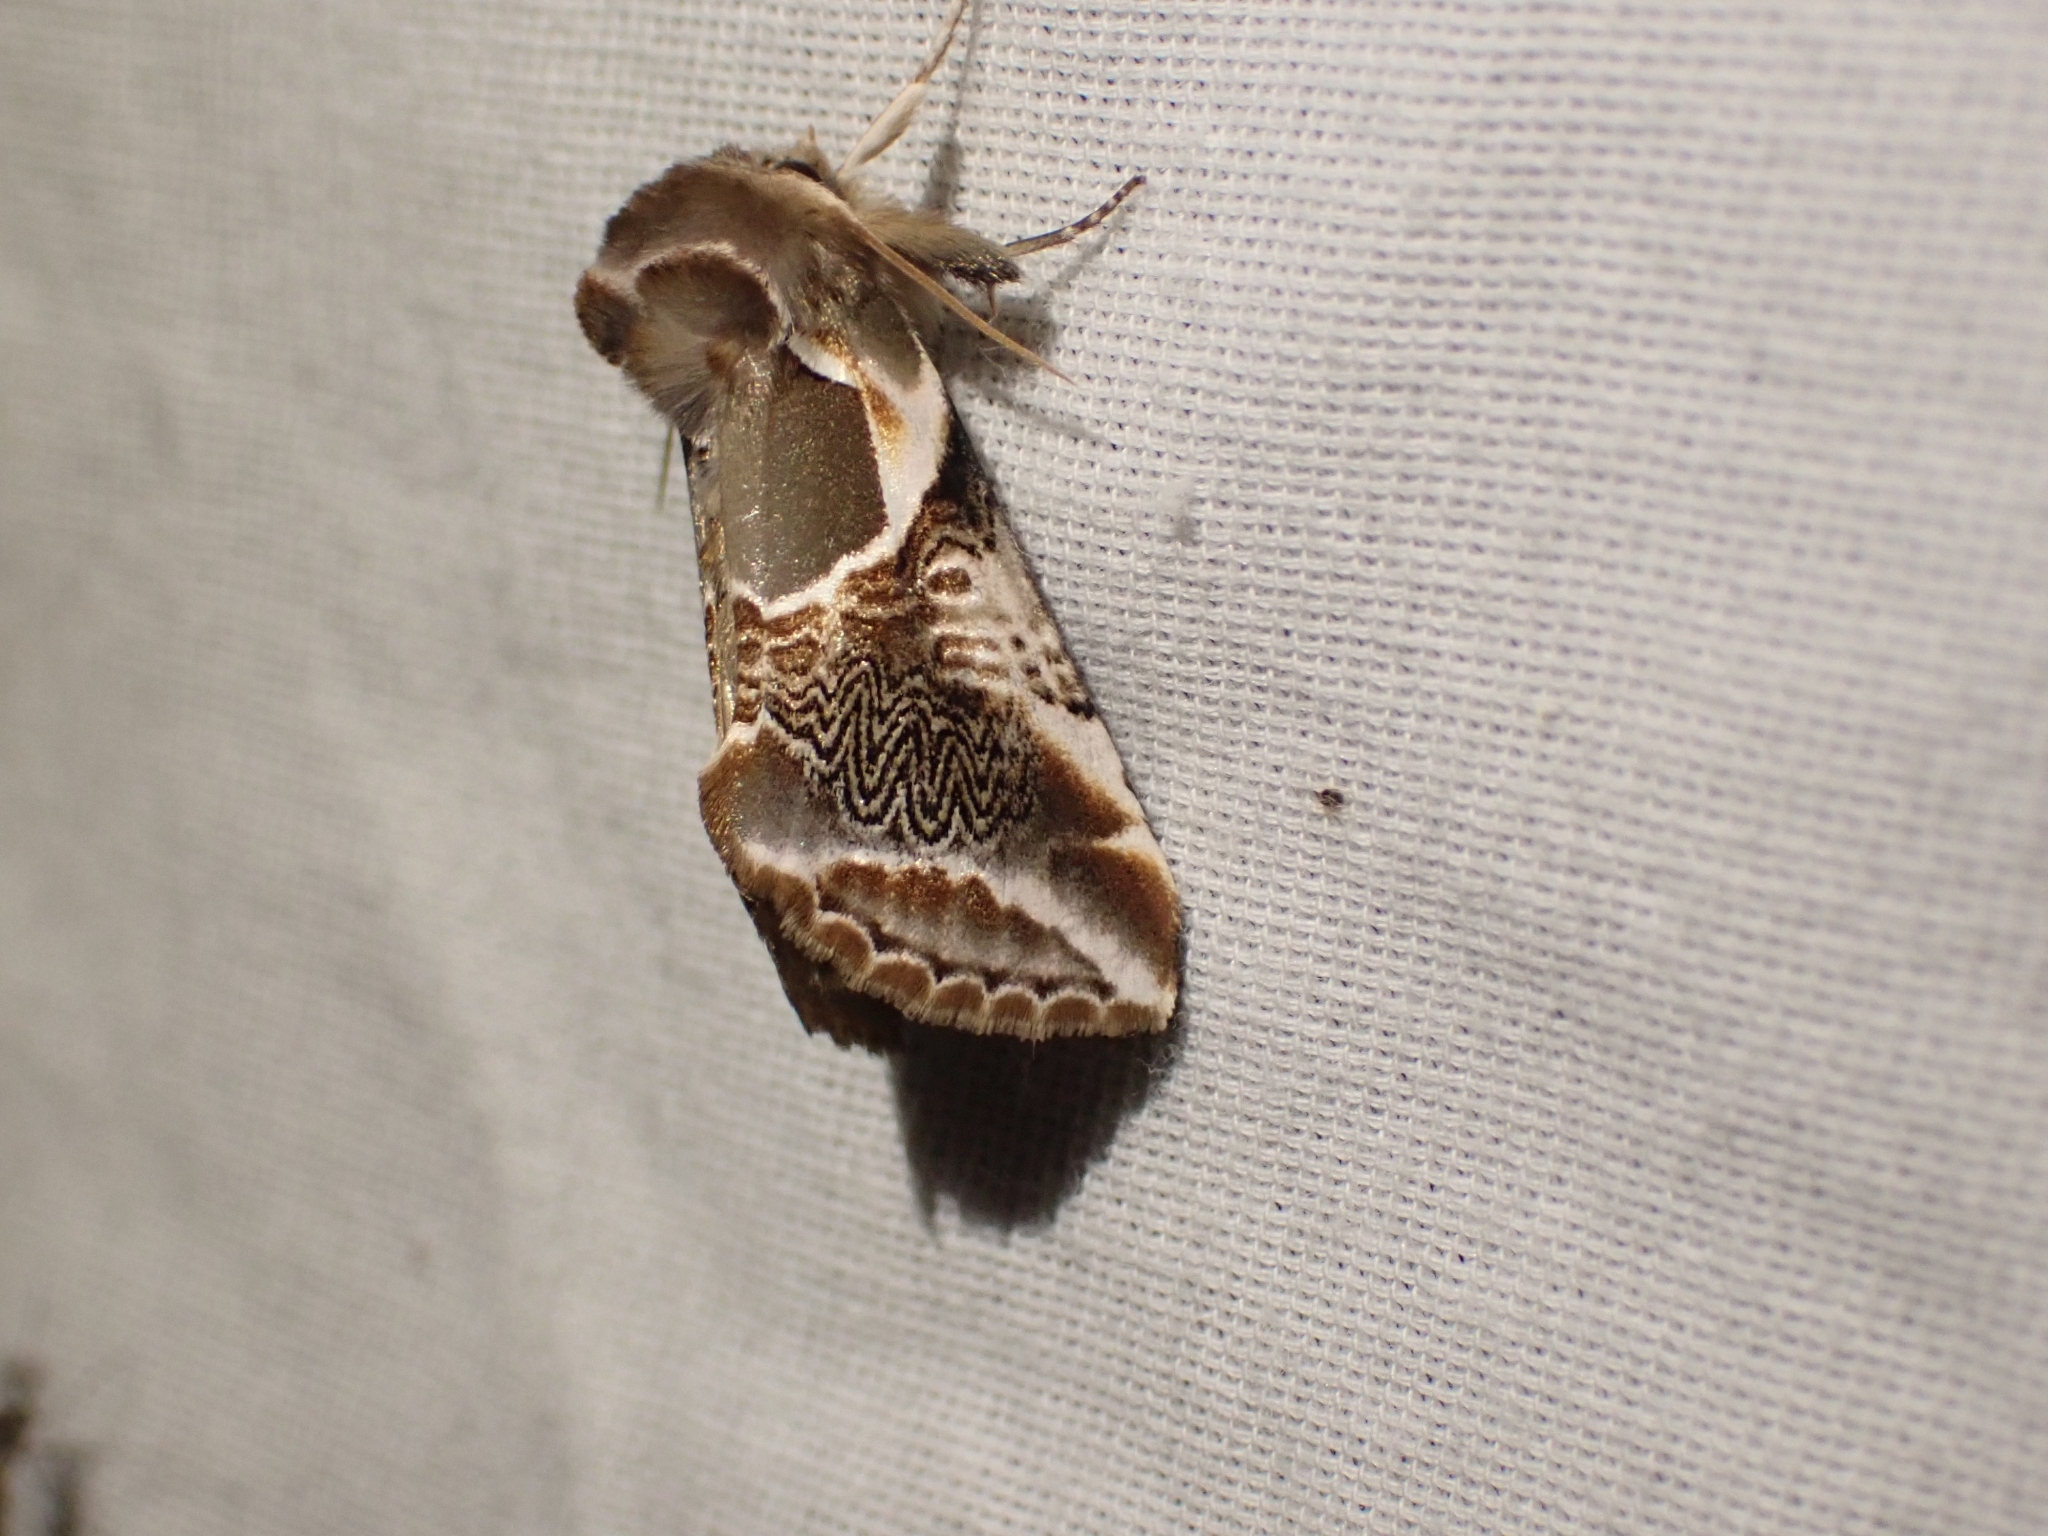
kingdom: Animalia
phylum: Arthropoda
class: Insecta
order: Lepidoptera
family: Drepanidae
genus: Habrosyne
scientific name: Habrosyne scripta
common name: Lettered habrosyne moth
